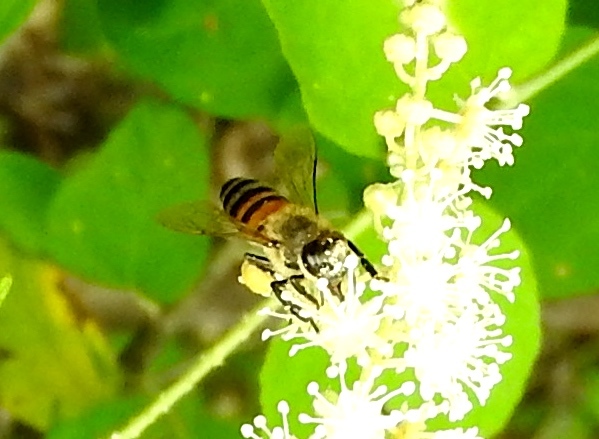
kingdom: Animalia
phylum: Arthropoda
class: Insecta
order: Hymenoptera
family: Apidae
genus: Apis
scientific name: Apis mellifera
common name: Honey bee
